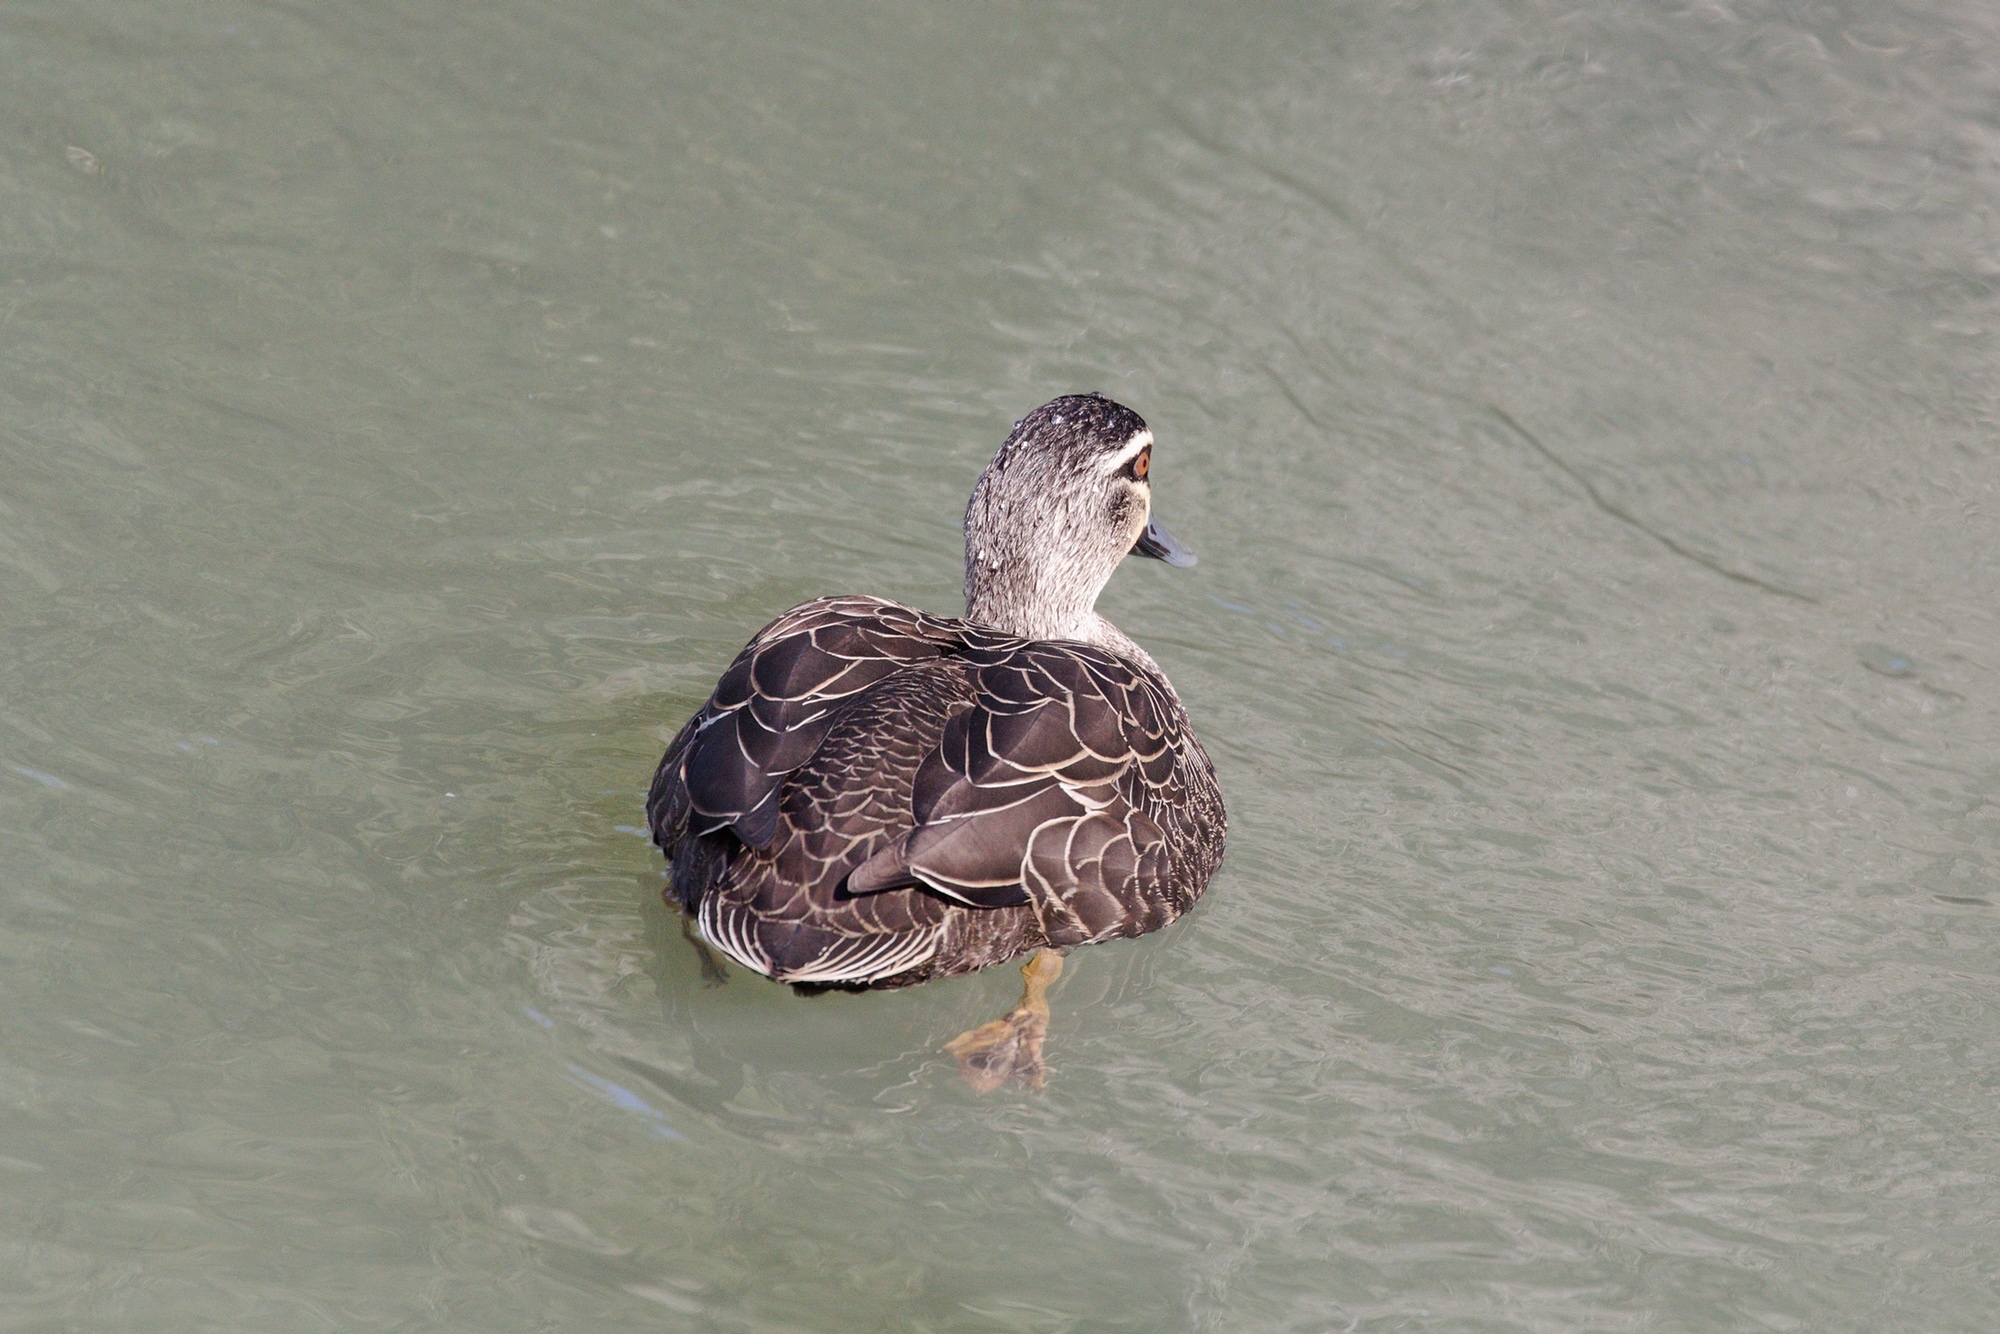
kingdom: Animalia
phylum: Chordata
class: Aves
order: Anseriformes
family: Anatidae
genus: Anas
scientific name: Anas superciliosa
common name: Pacific black duck
